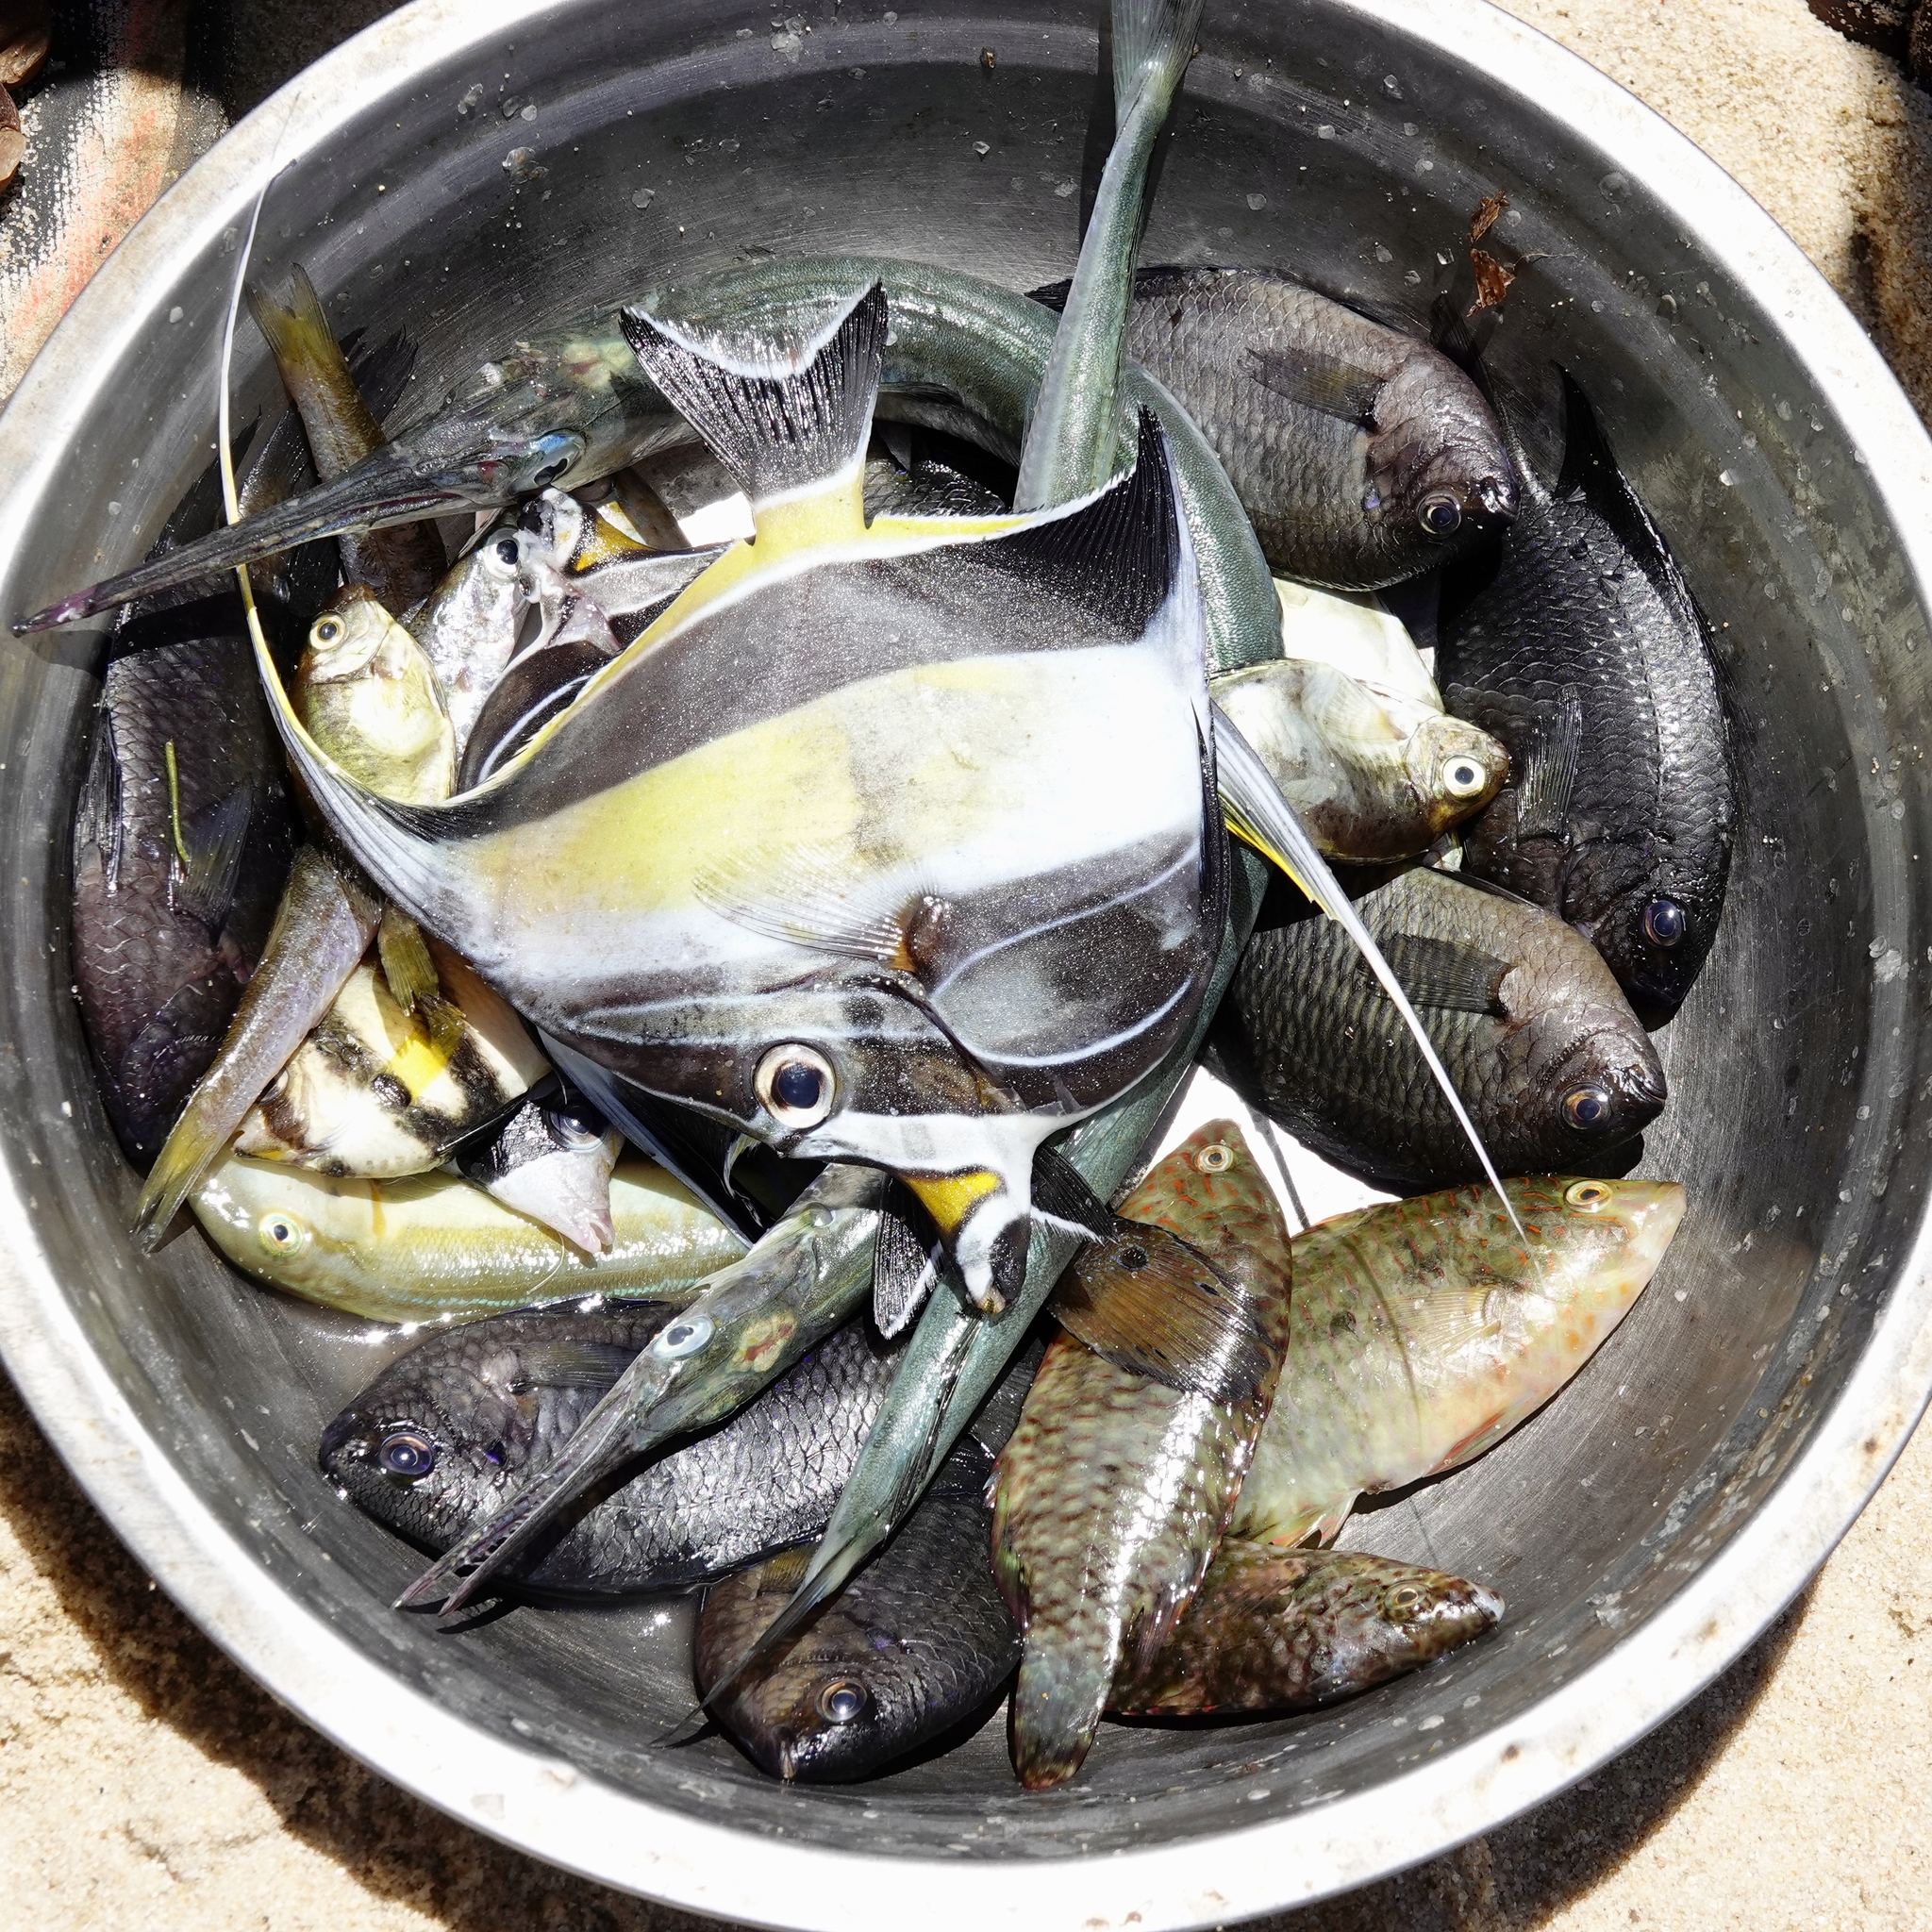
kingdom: Animalia
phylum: Chordata
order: Perciformes
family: Zanclidae
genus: Zanclus
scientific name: Zanclus cornutus
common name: Moorish idol
